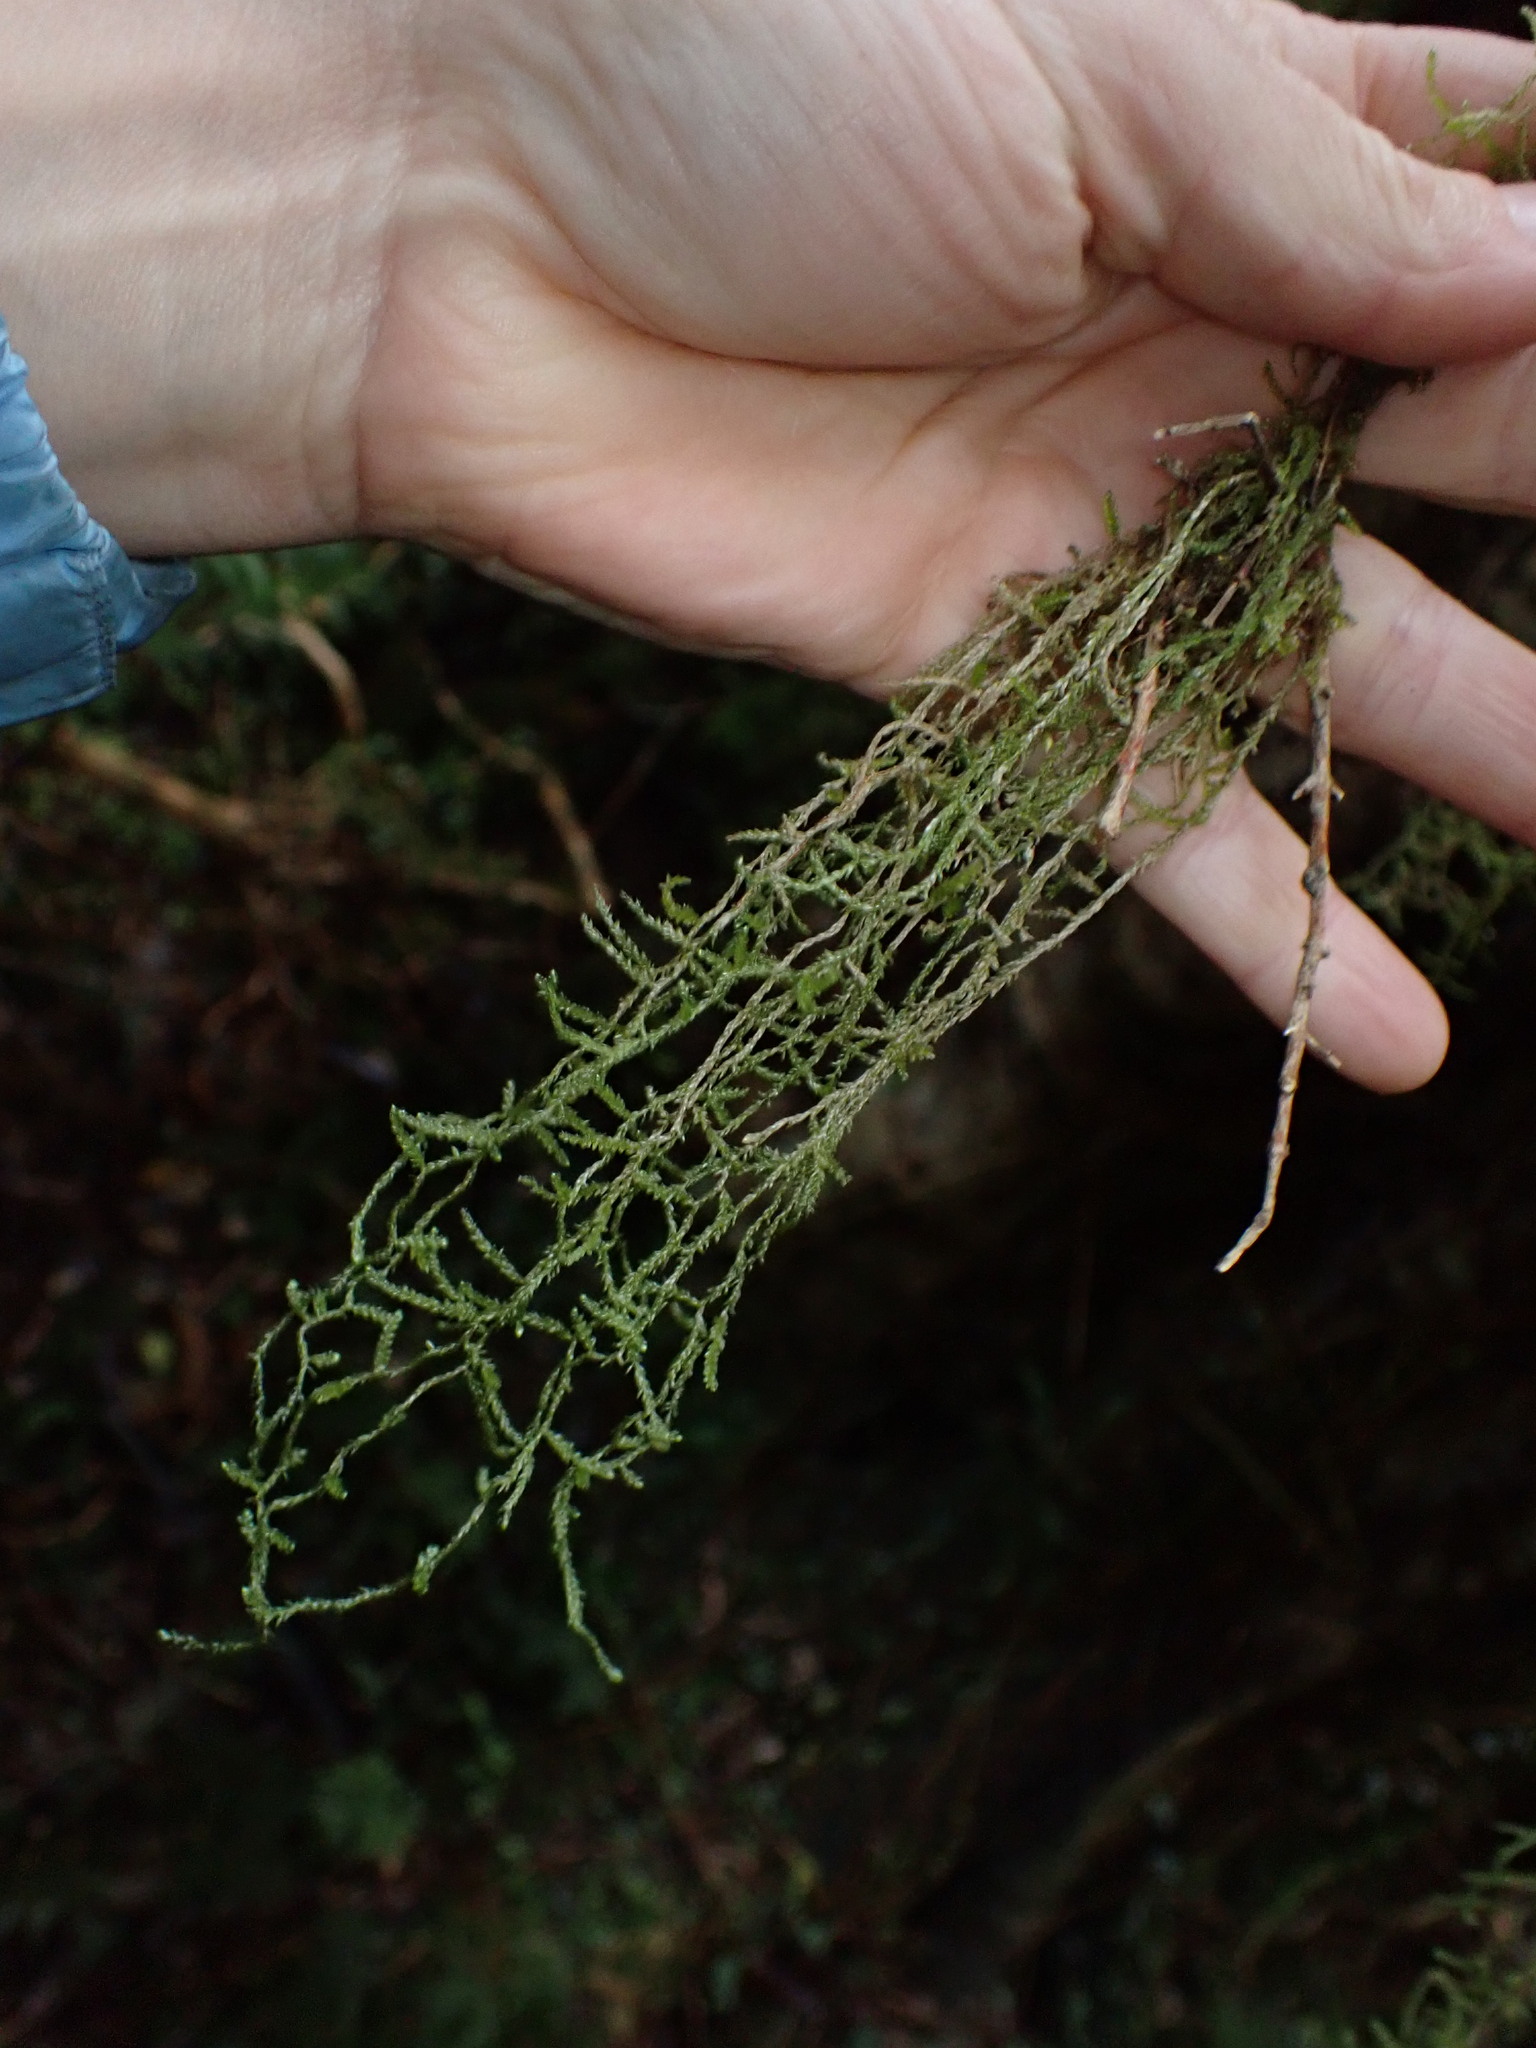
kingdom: Plantae
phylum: Bryophyta
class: Bryopsida
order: Hypnales
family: Lembophyllaceae
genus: Weymouthia
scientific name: Weymouthia mollis
